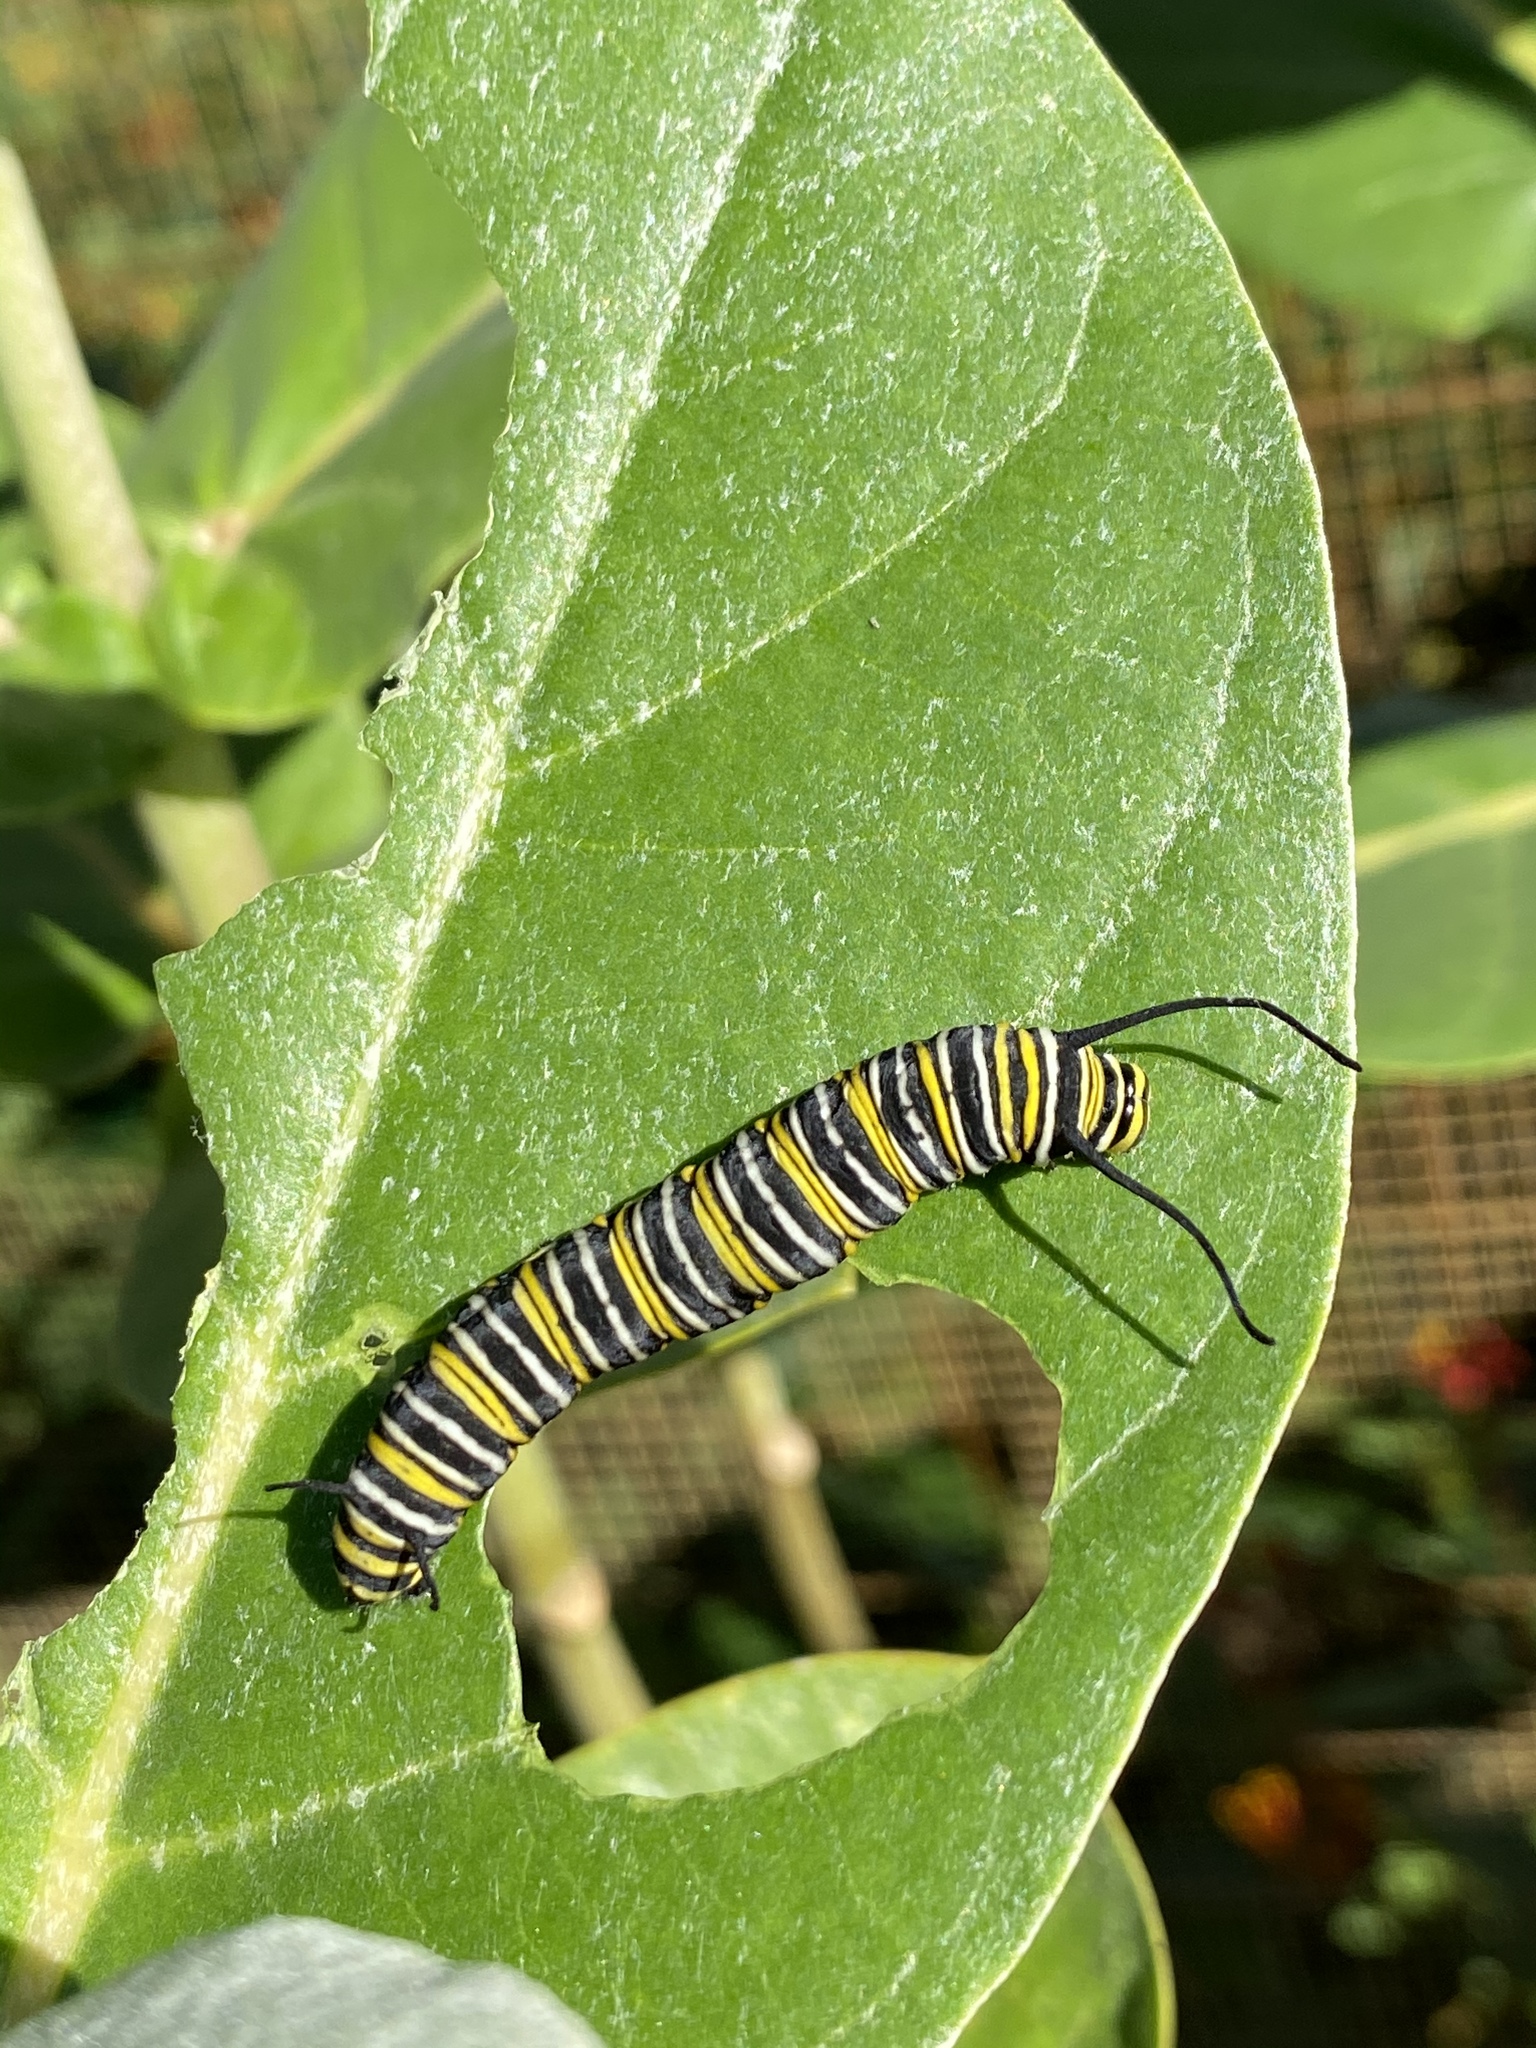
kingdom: Animalia
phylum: Arthropoda
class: Insecta
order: Lepidoptera
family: Nymphalidae
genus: Danaus
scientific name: Danaus plexippus
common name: Monarch
